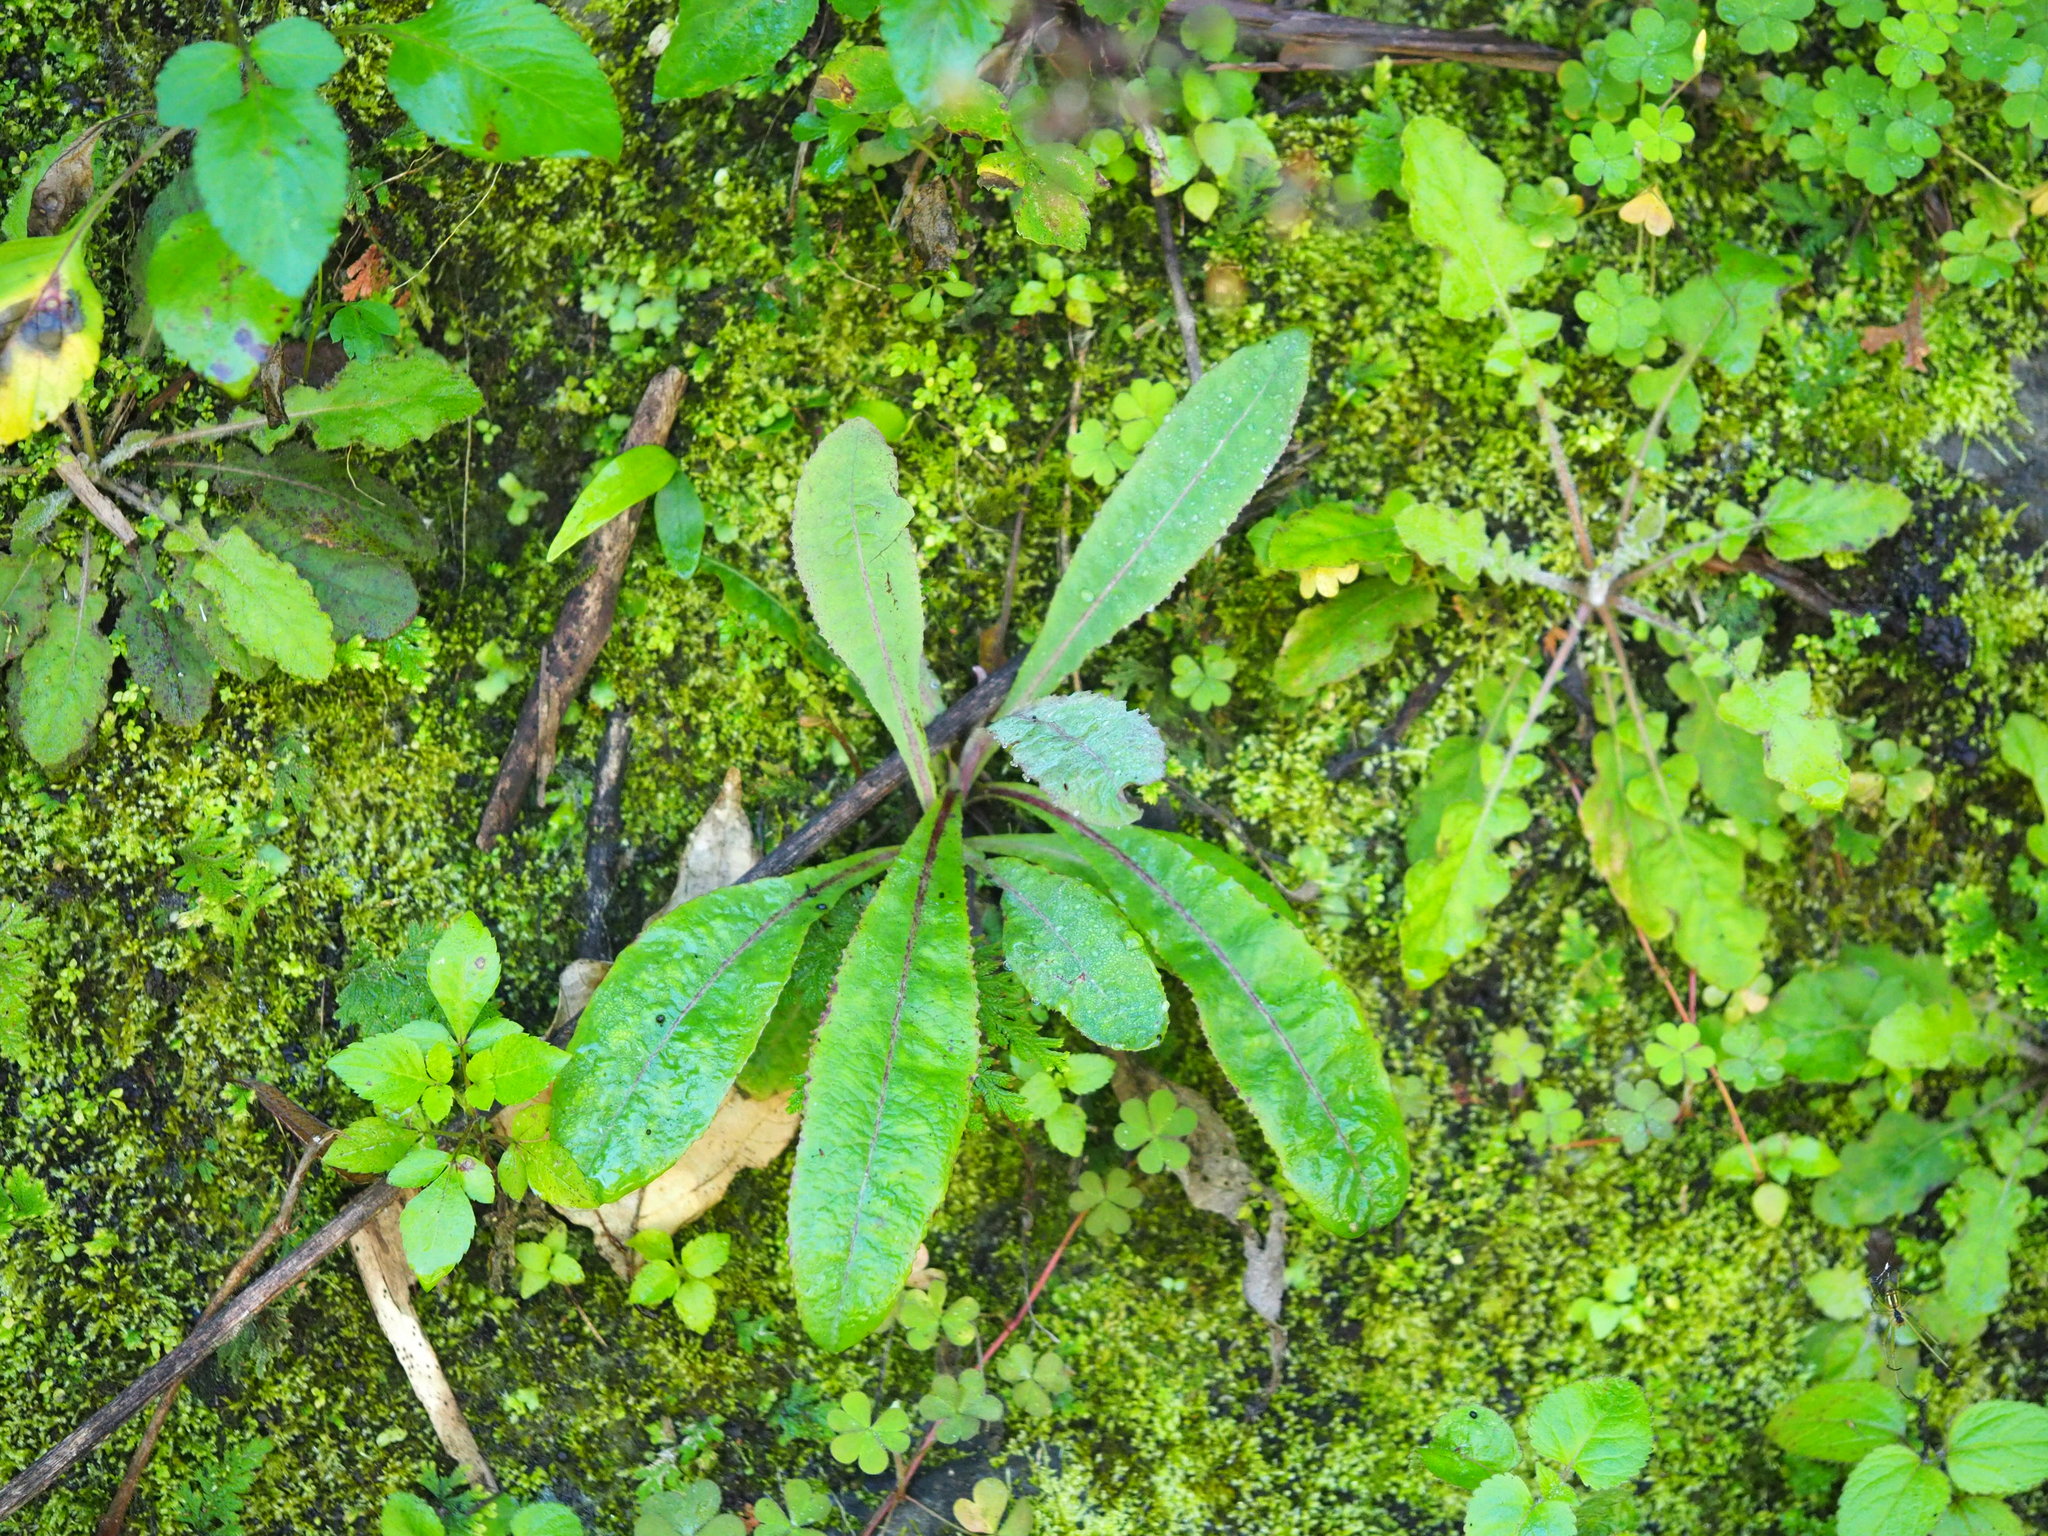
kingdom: Plantae
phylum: Tracheophyta
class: Magnoliopsida
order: Asterales
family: Asteraceae
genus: Sonchus
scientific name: Sonchus arvensis
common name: Perennial sow-thistle
